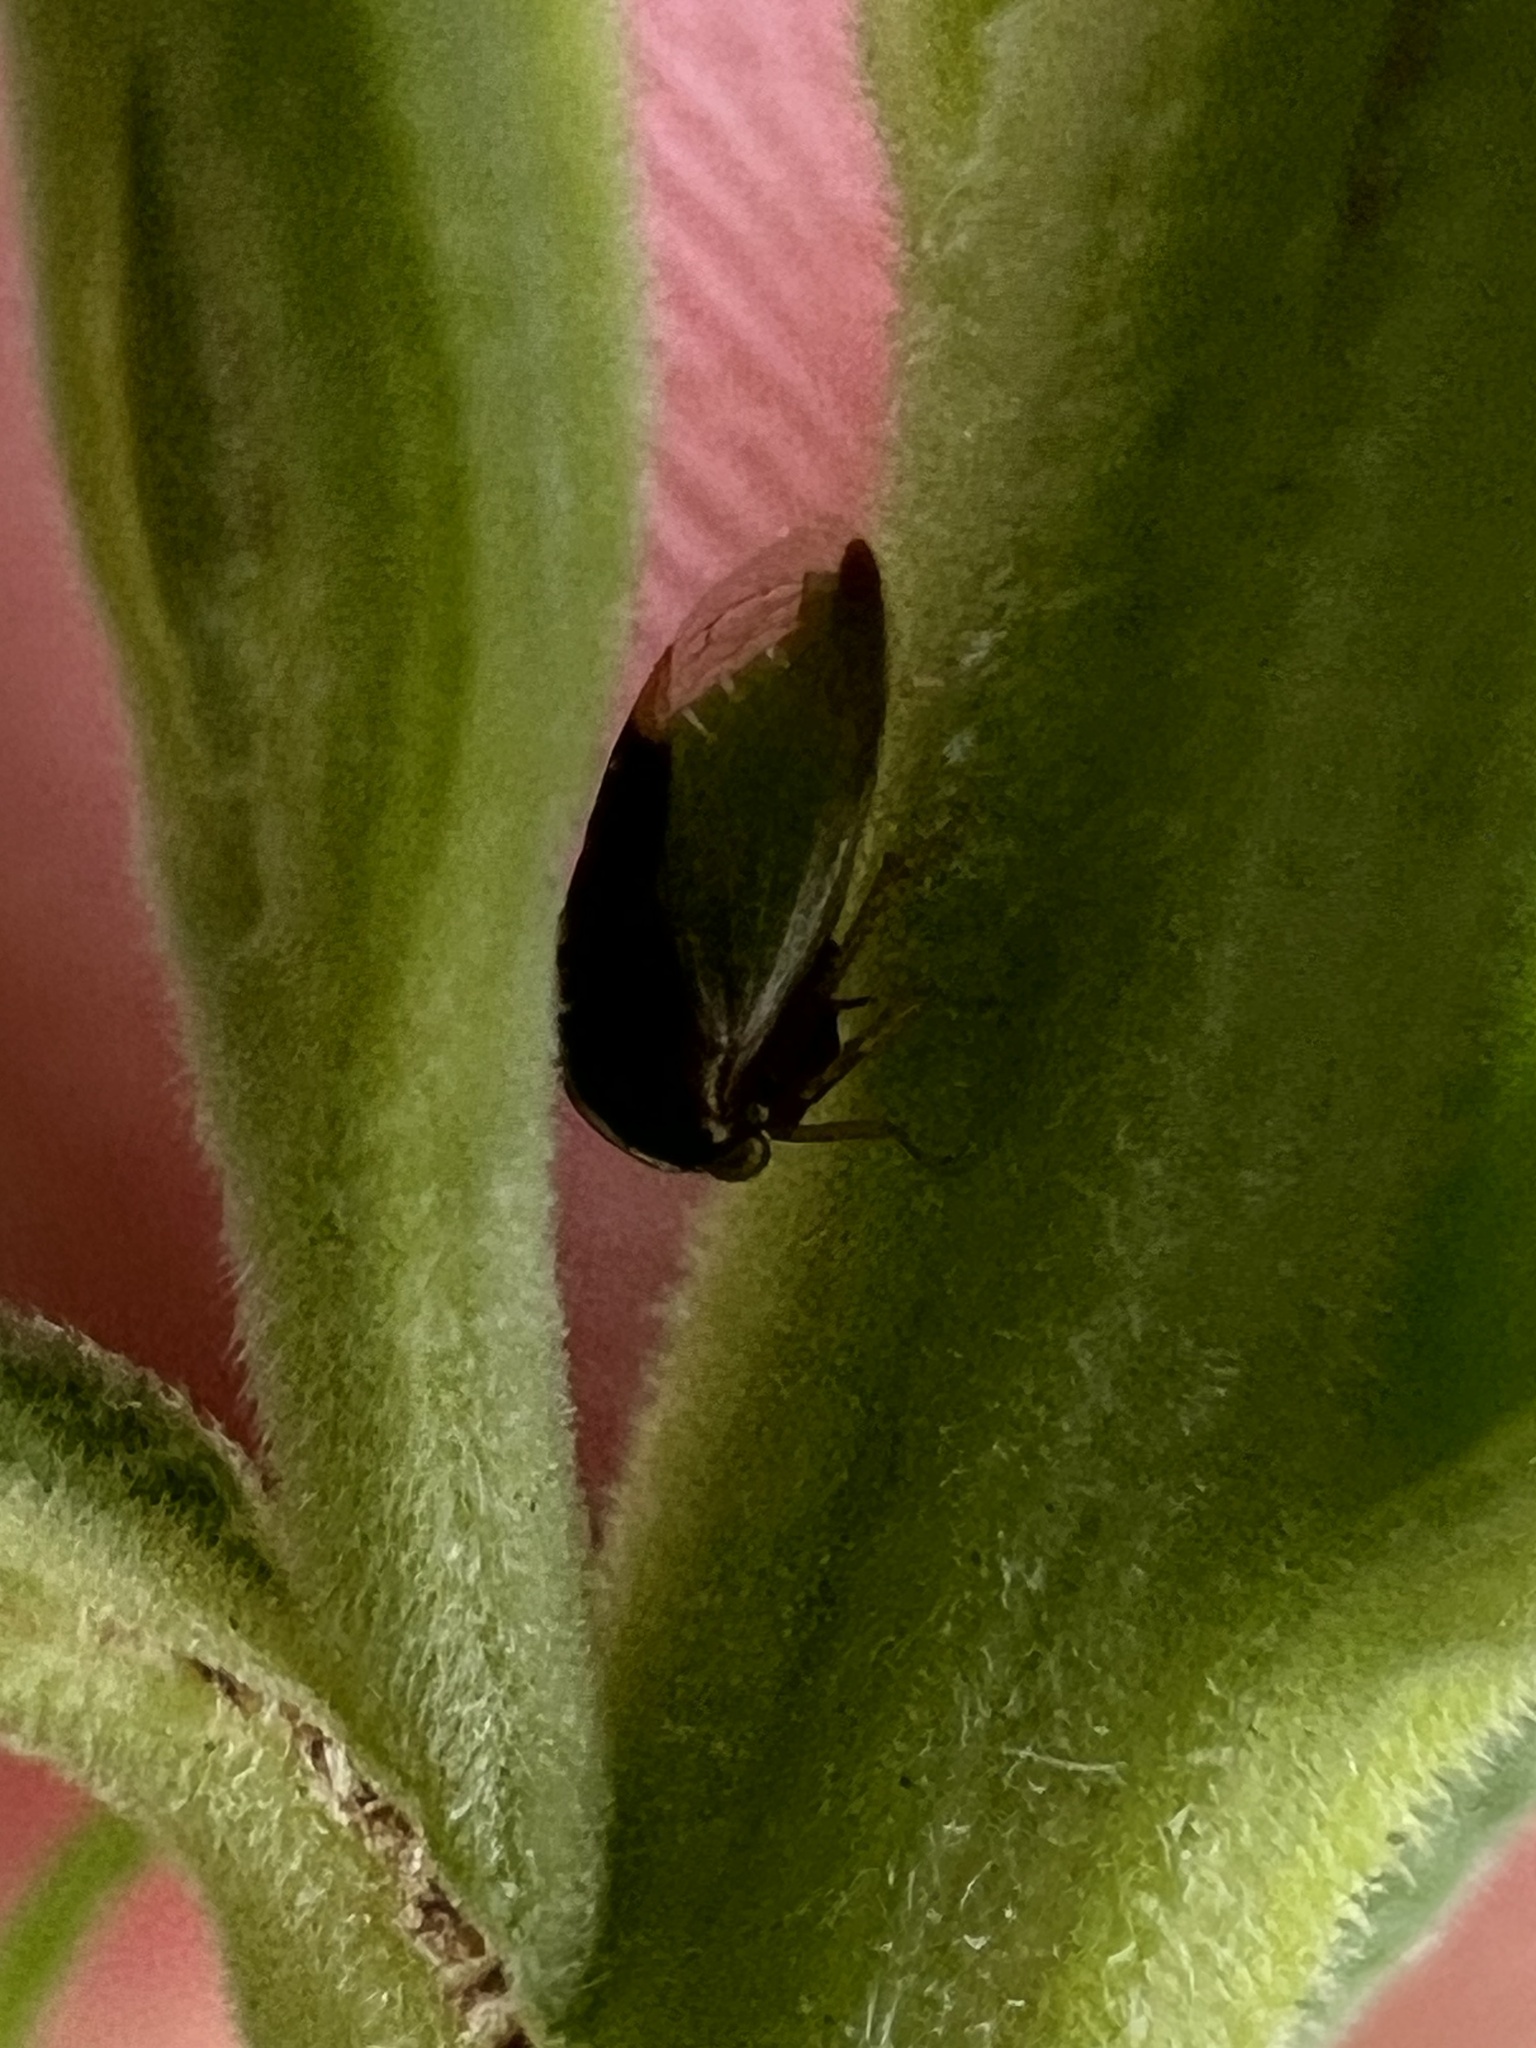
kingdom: Animalia
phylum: Arthropoda
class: Insecta
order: Hemiptera
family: Membracidae
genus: Micrutalis
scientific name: Micrutalis calva
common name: Honeylocust treehopper
